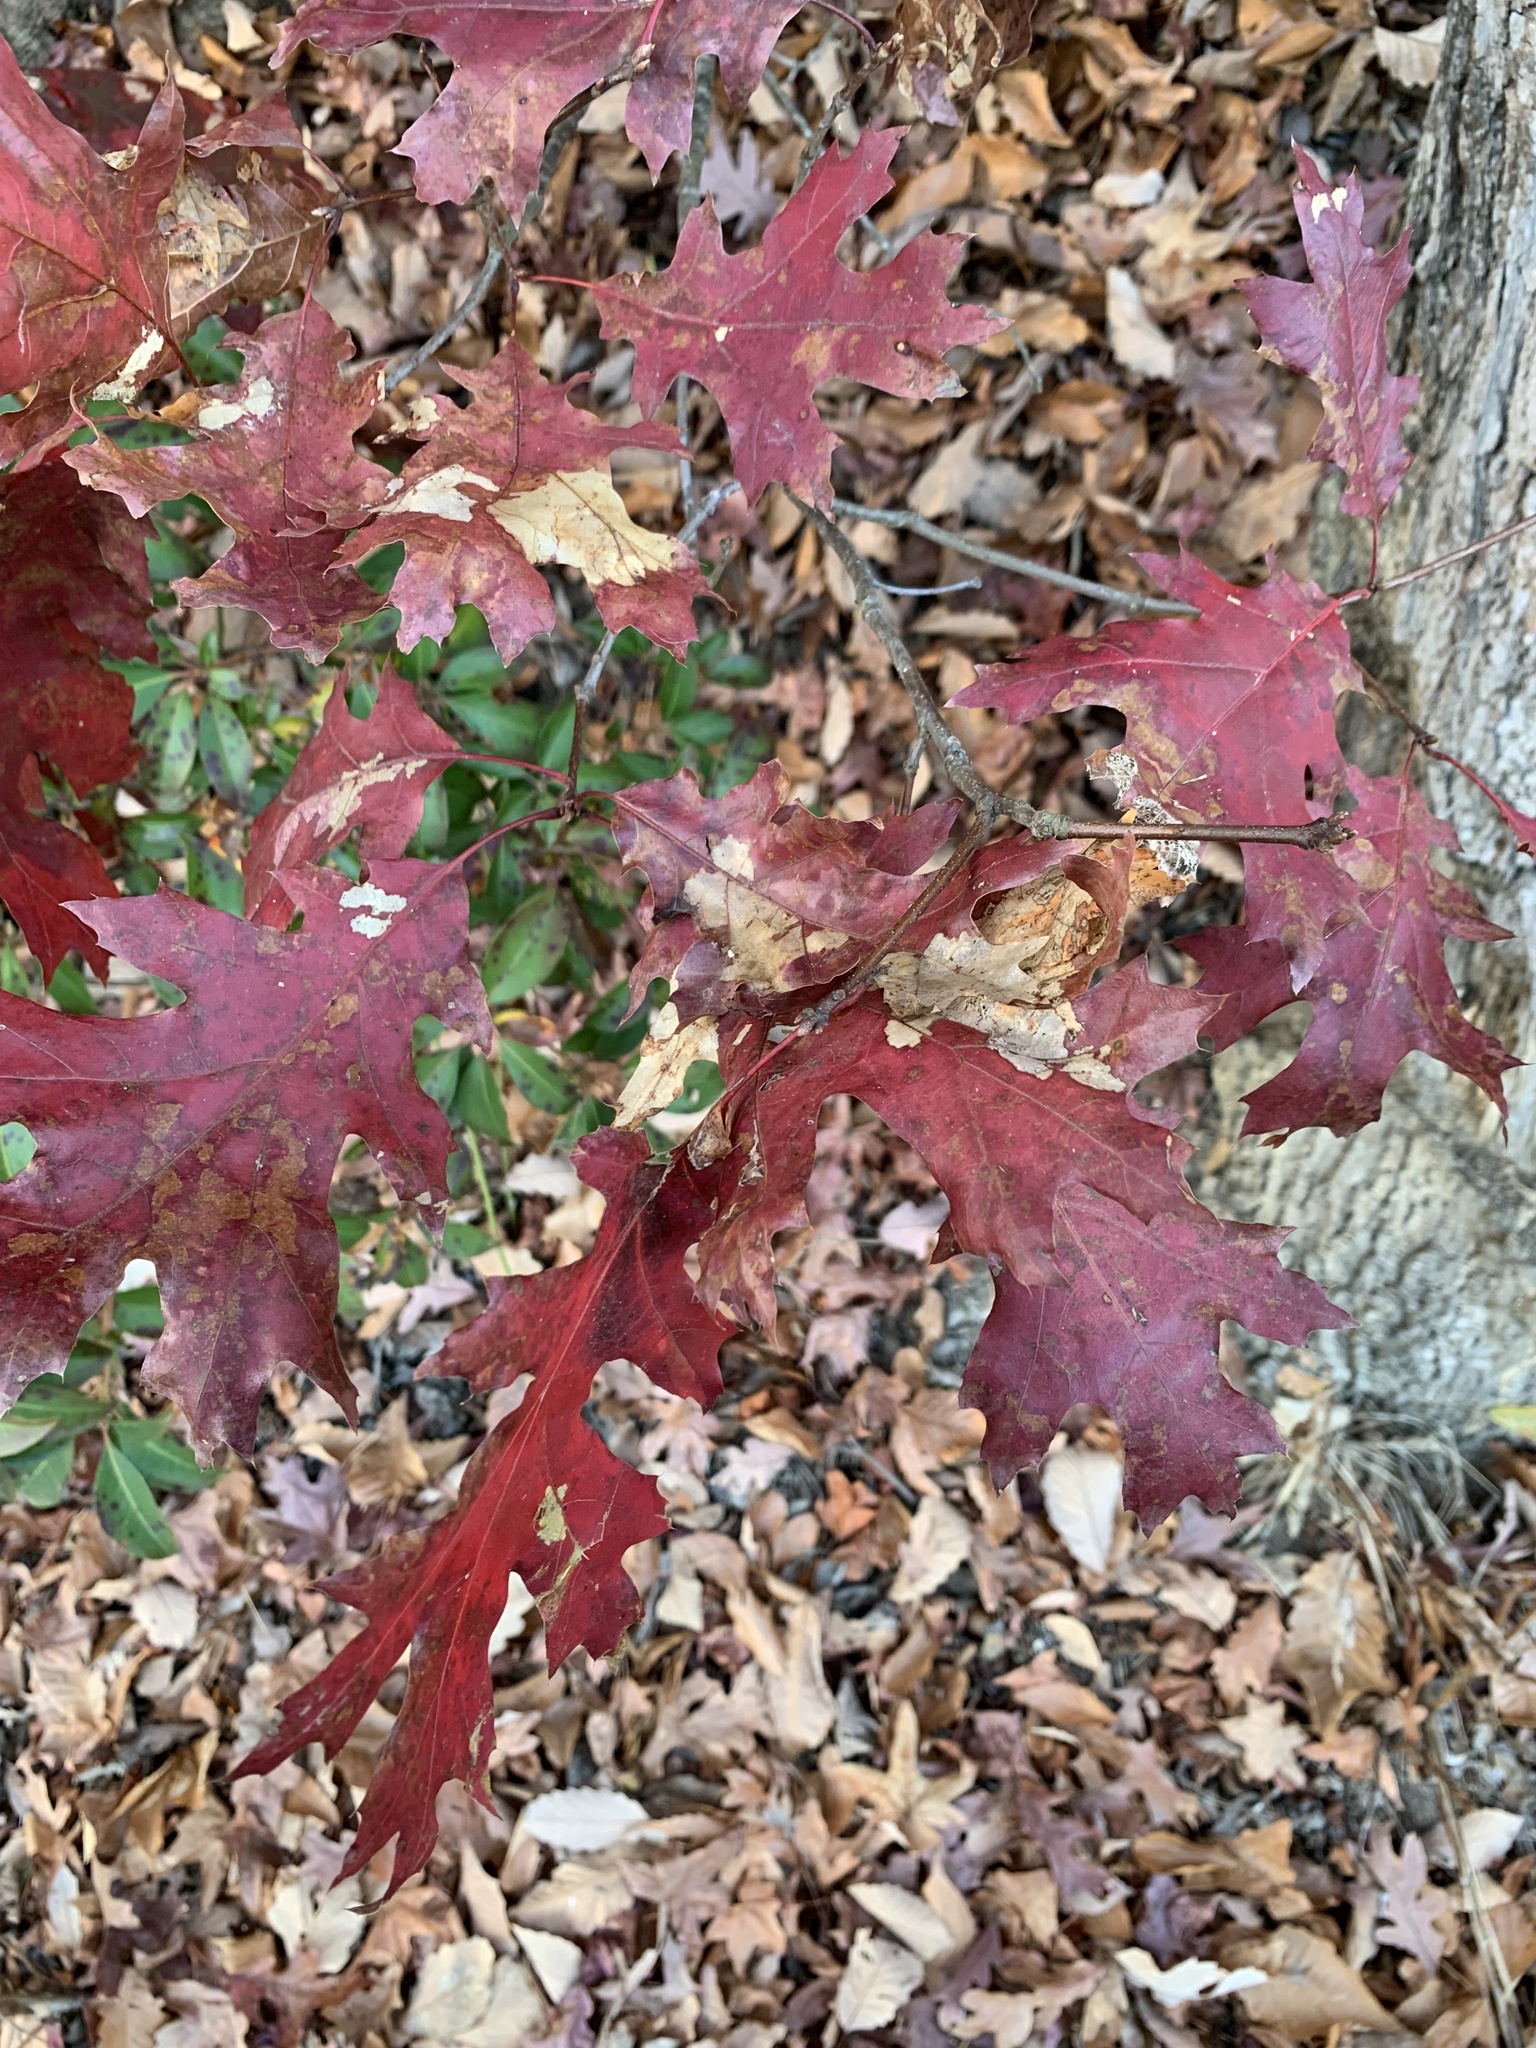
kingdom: Plantae
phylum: Tracheophyta
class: Magnoliopsida
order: Fagales
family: Fagaceae
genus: Quercus
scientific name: Quercus rubra
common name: Red oak
